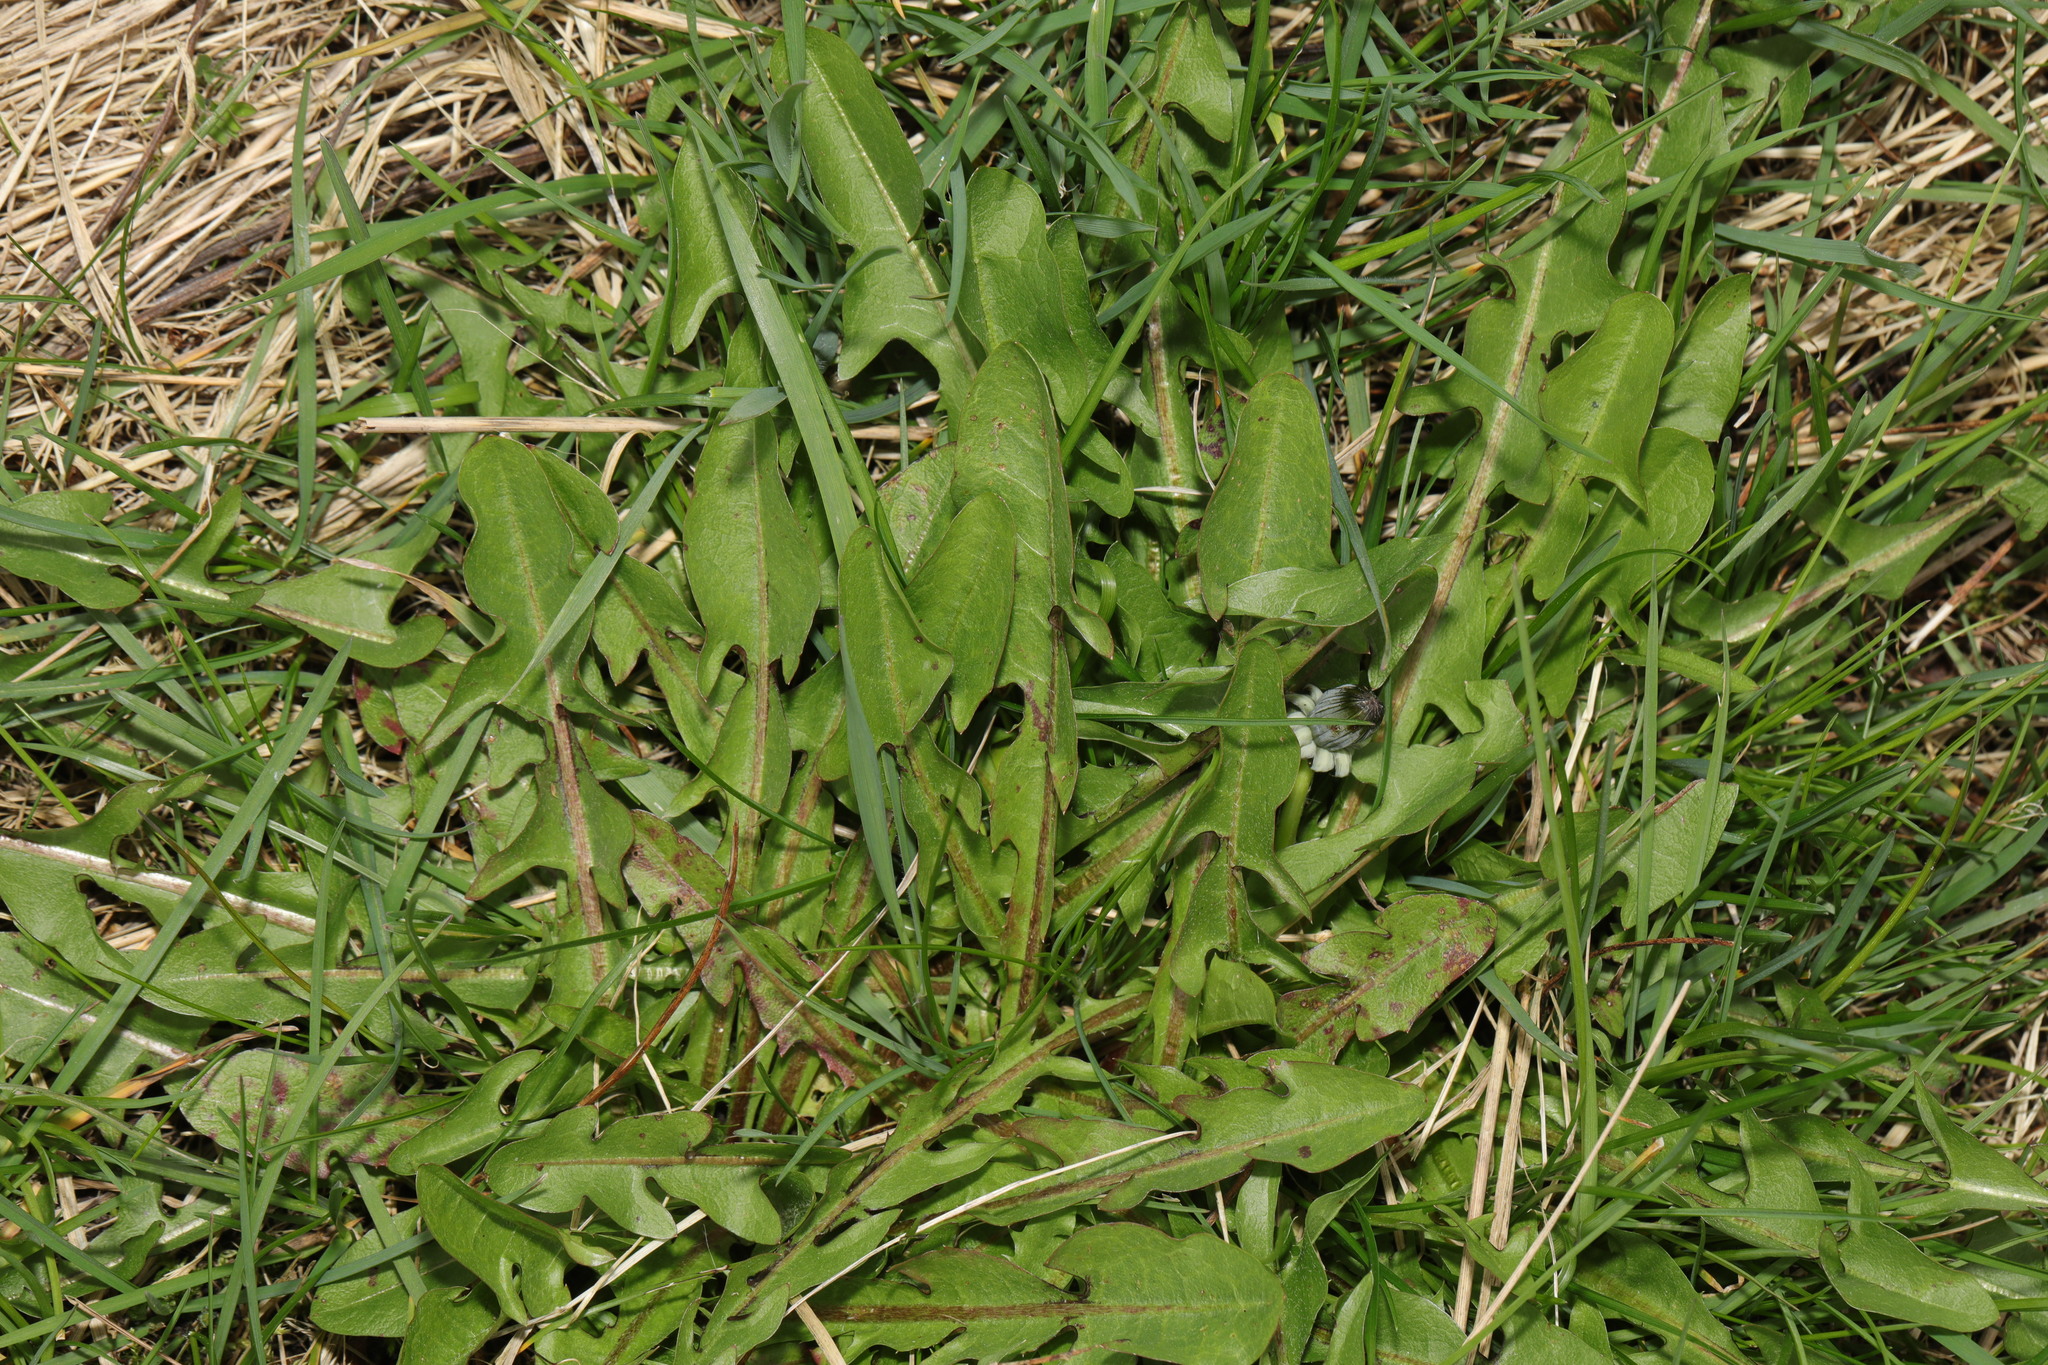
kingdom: Plantae
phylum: Tracheophyta
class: Magnoliopsida
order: Asterales
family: Asteraceae
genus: Taraxacum
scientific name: Taraxacum officinale
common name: Common dandelion
